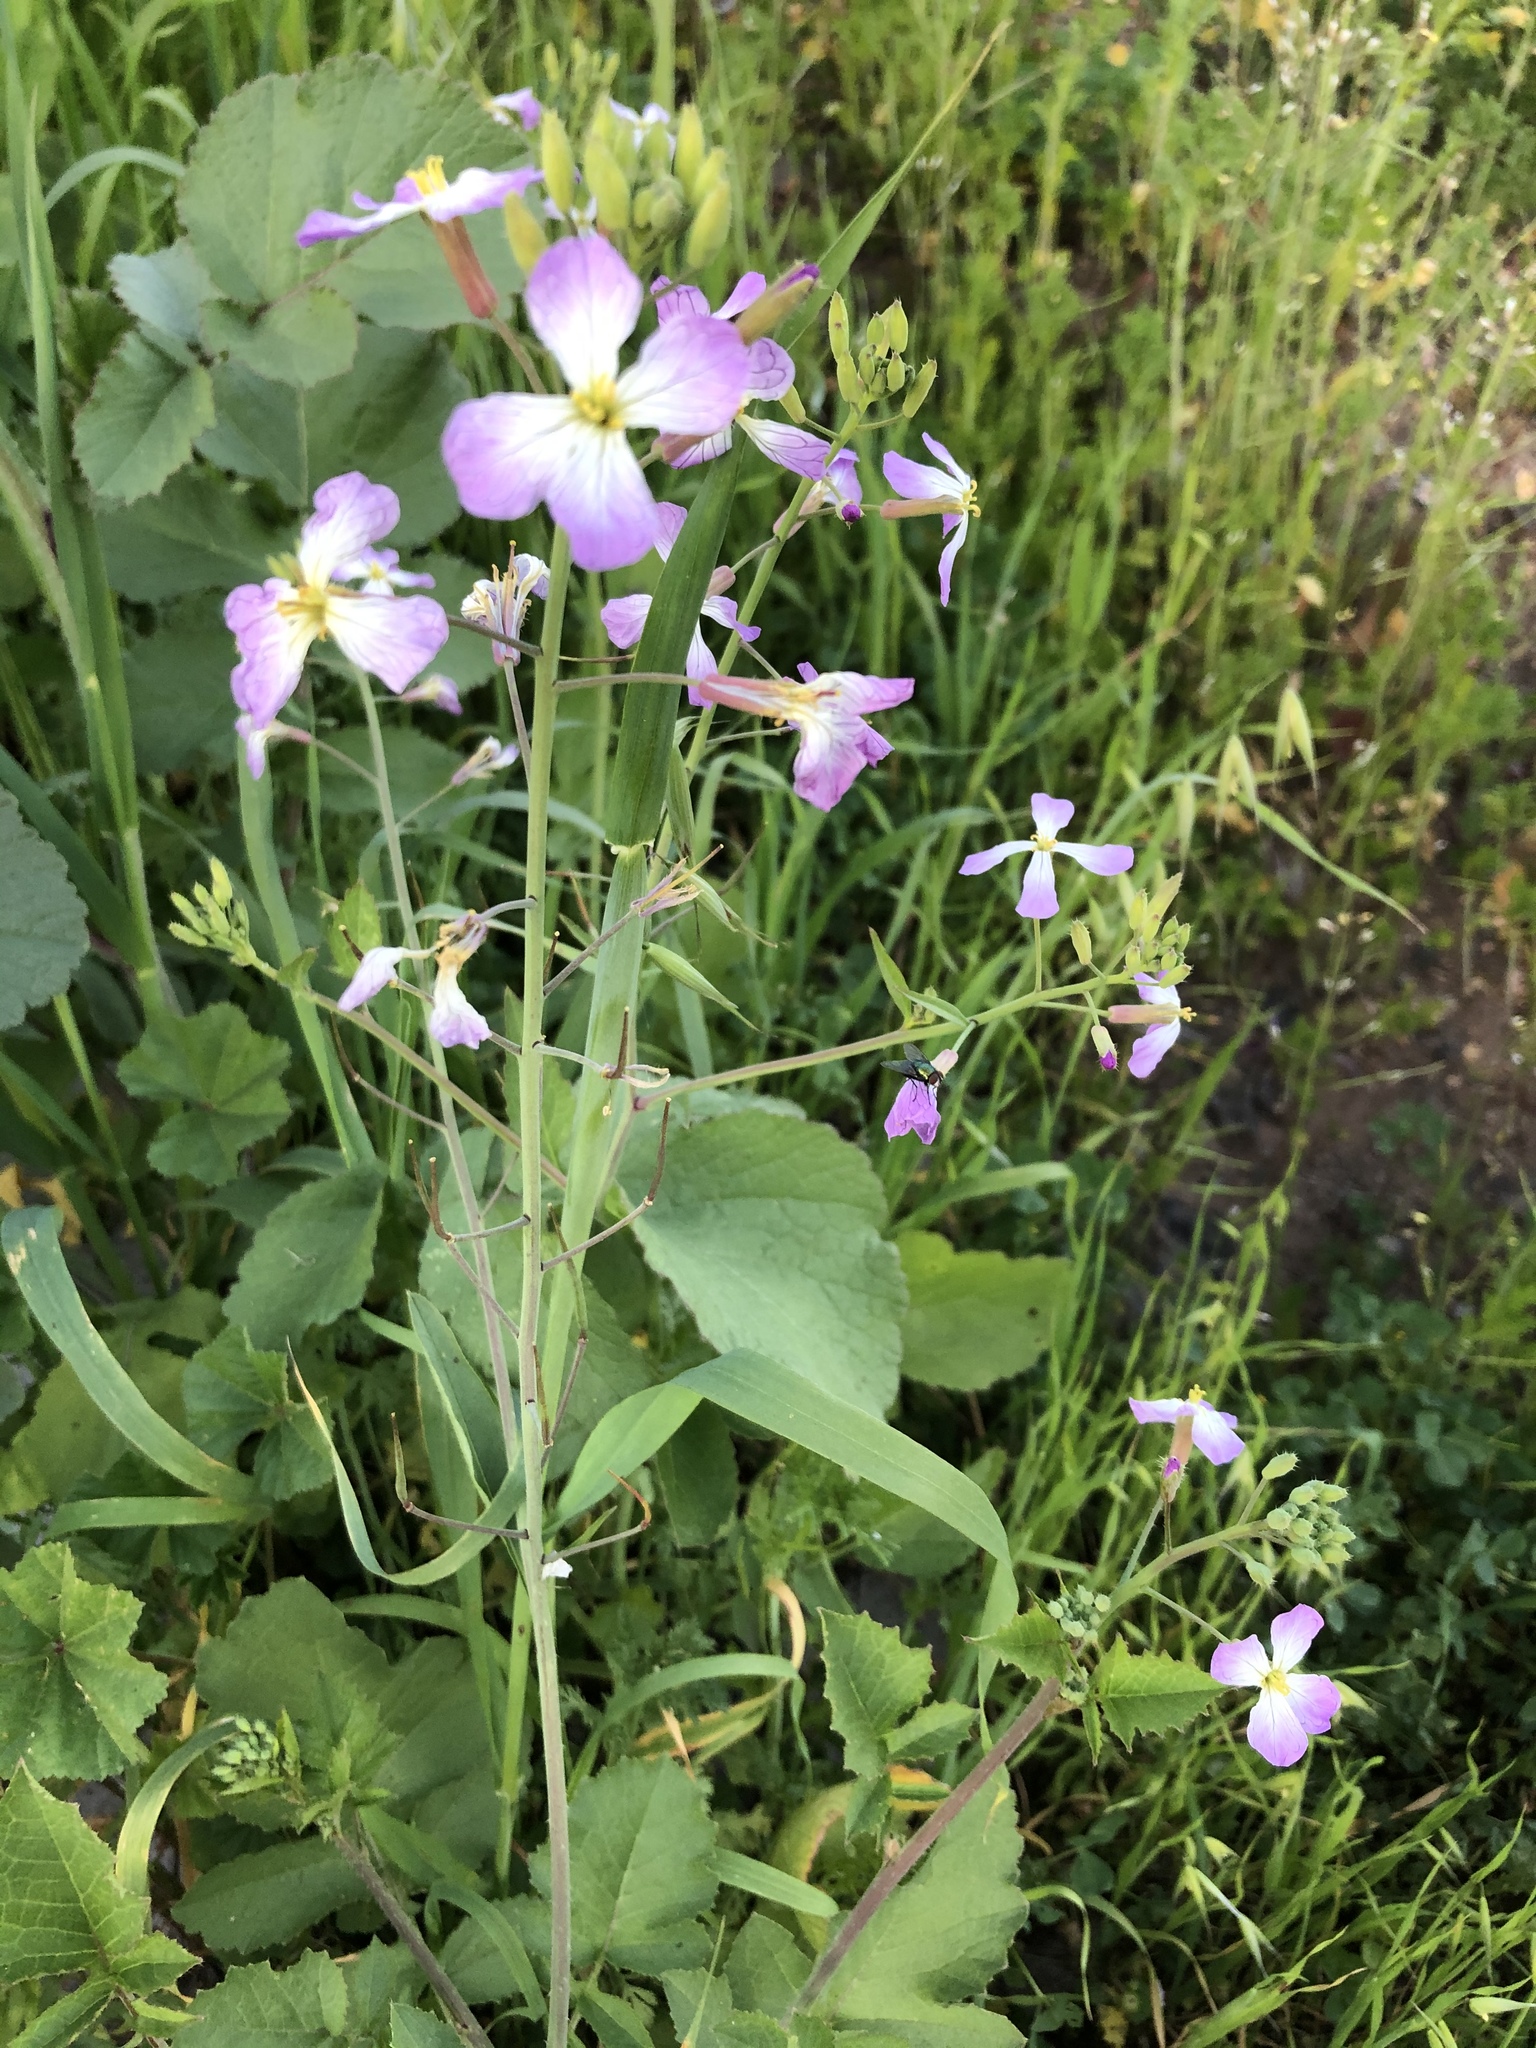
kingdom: Plantae
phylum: Tracheophyta
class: Magnoliopsida
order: Brassicales
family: Brassicaceae
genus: Raphanus
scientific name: Raphanus sativus
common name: Cultivated radish
